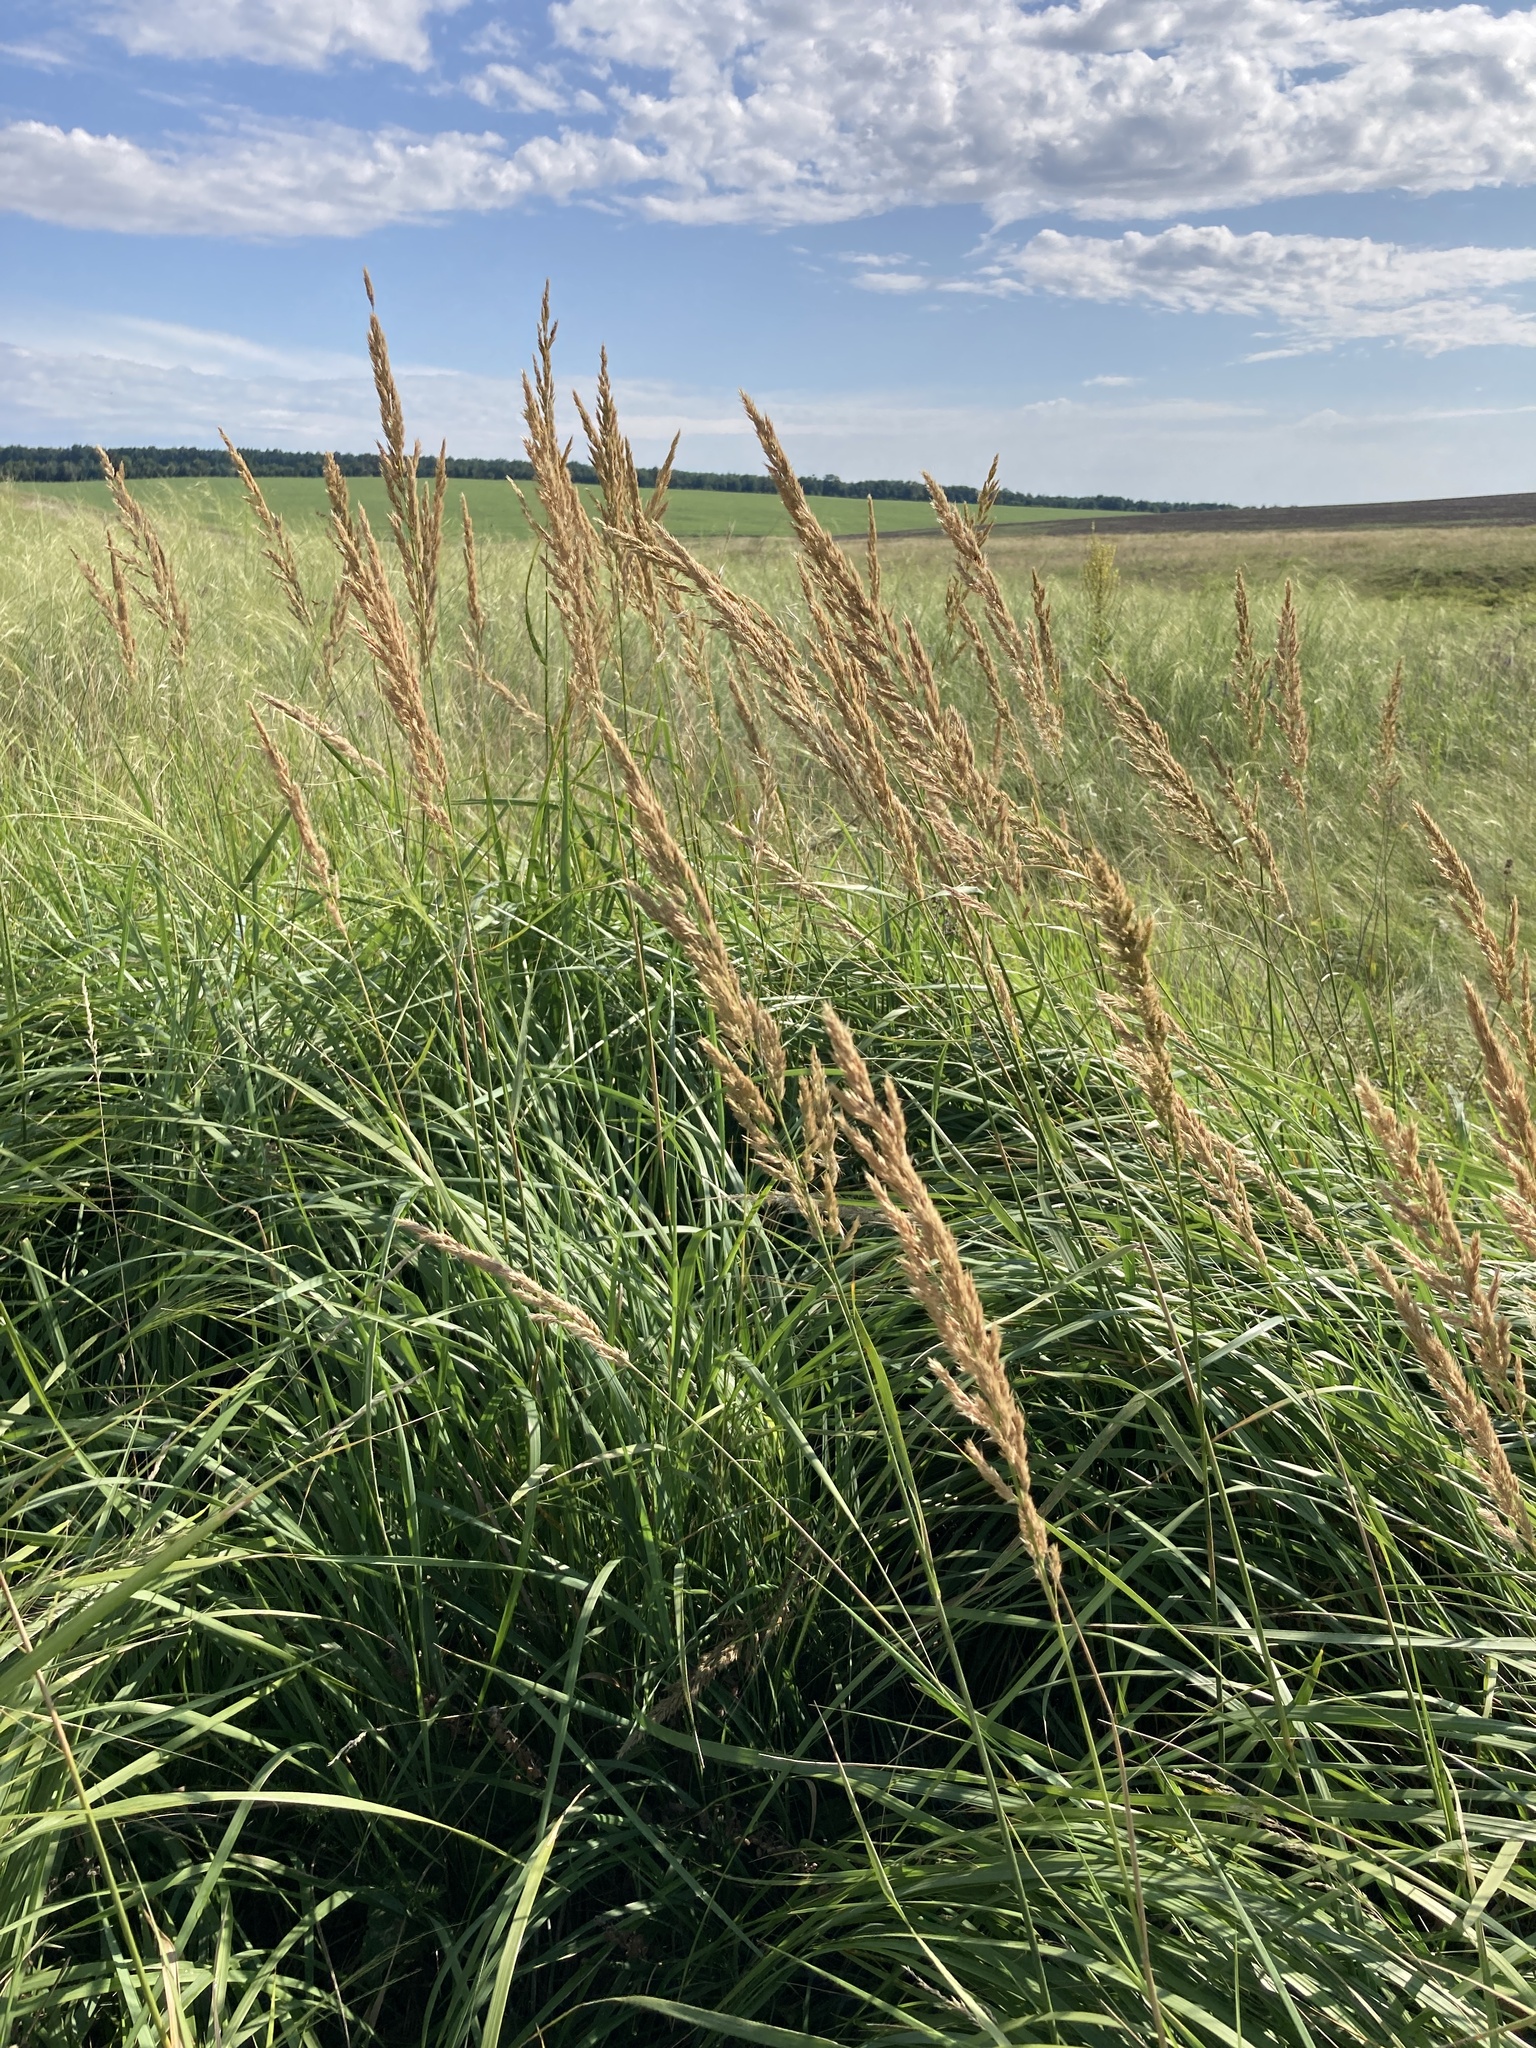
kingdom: Plantae
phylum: Tracheophyta
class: Liliopsida
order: Poales
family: Poaceae
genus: Calamagrostis
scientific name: Calamagrostis epigejos
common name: Wood small-reed
